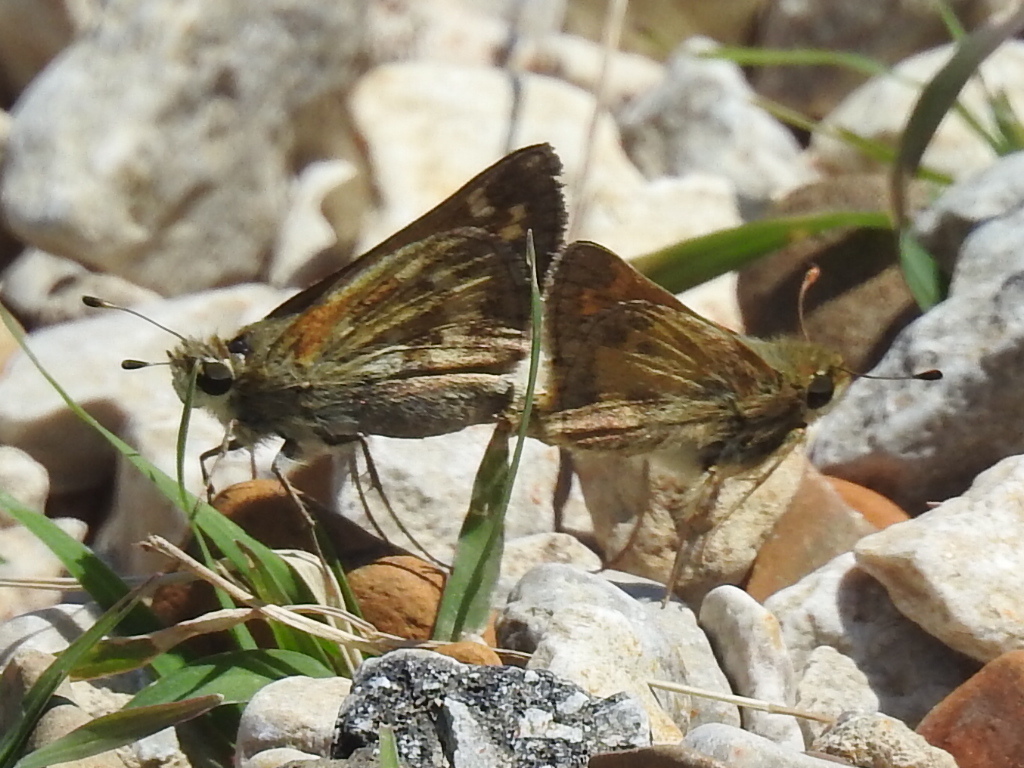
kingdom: Animalia
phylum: Arthropoda
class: Insecta
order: Lepidoptera
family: Hesperiidae
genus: Atalopedes
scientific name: Atalopedes
